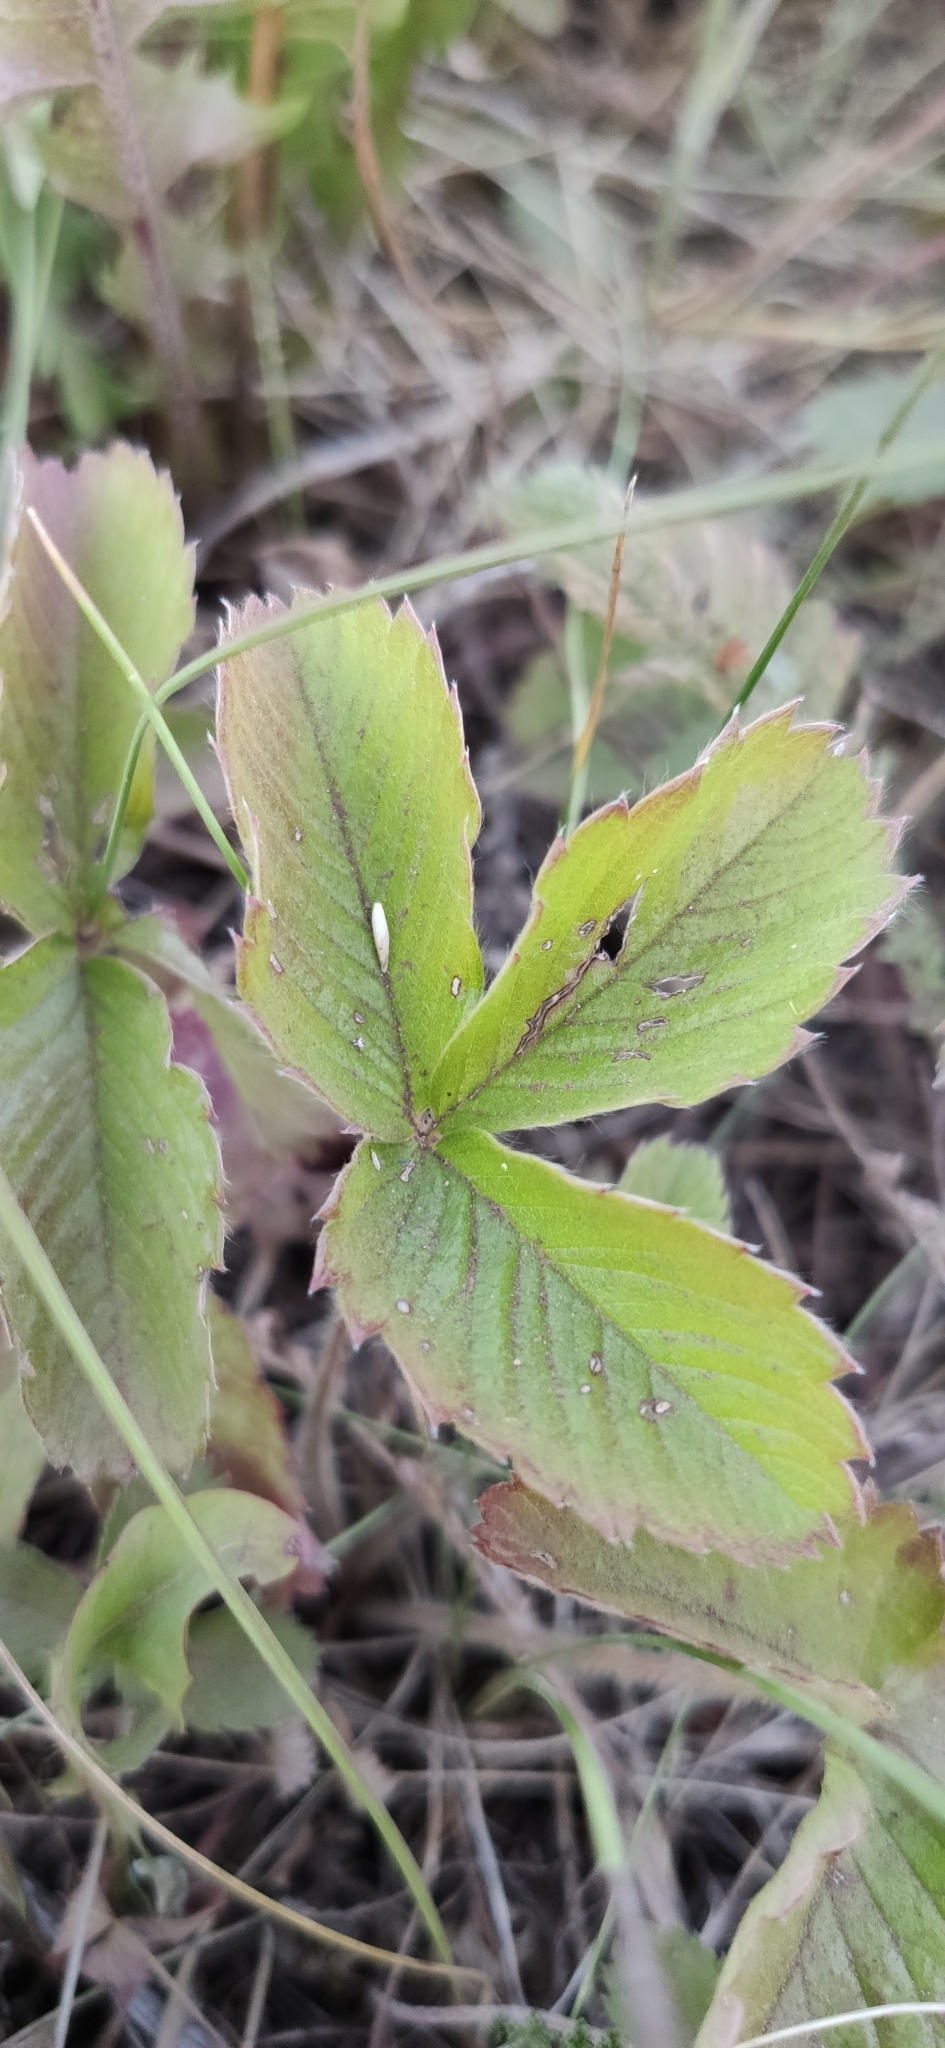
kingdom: Plantae
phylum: Tracheophyta
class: Magnoliopsida
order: Rosales
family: Rosaceae
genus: Fragaria
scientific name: Fragaria viridis
